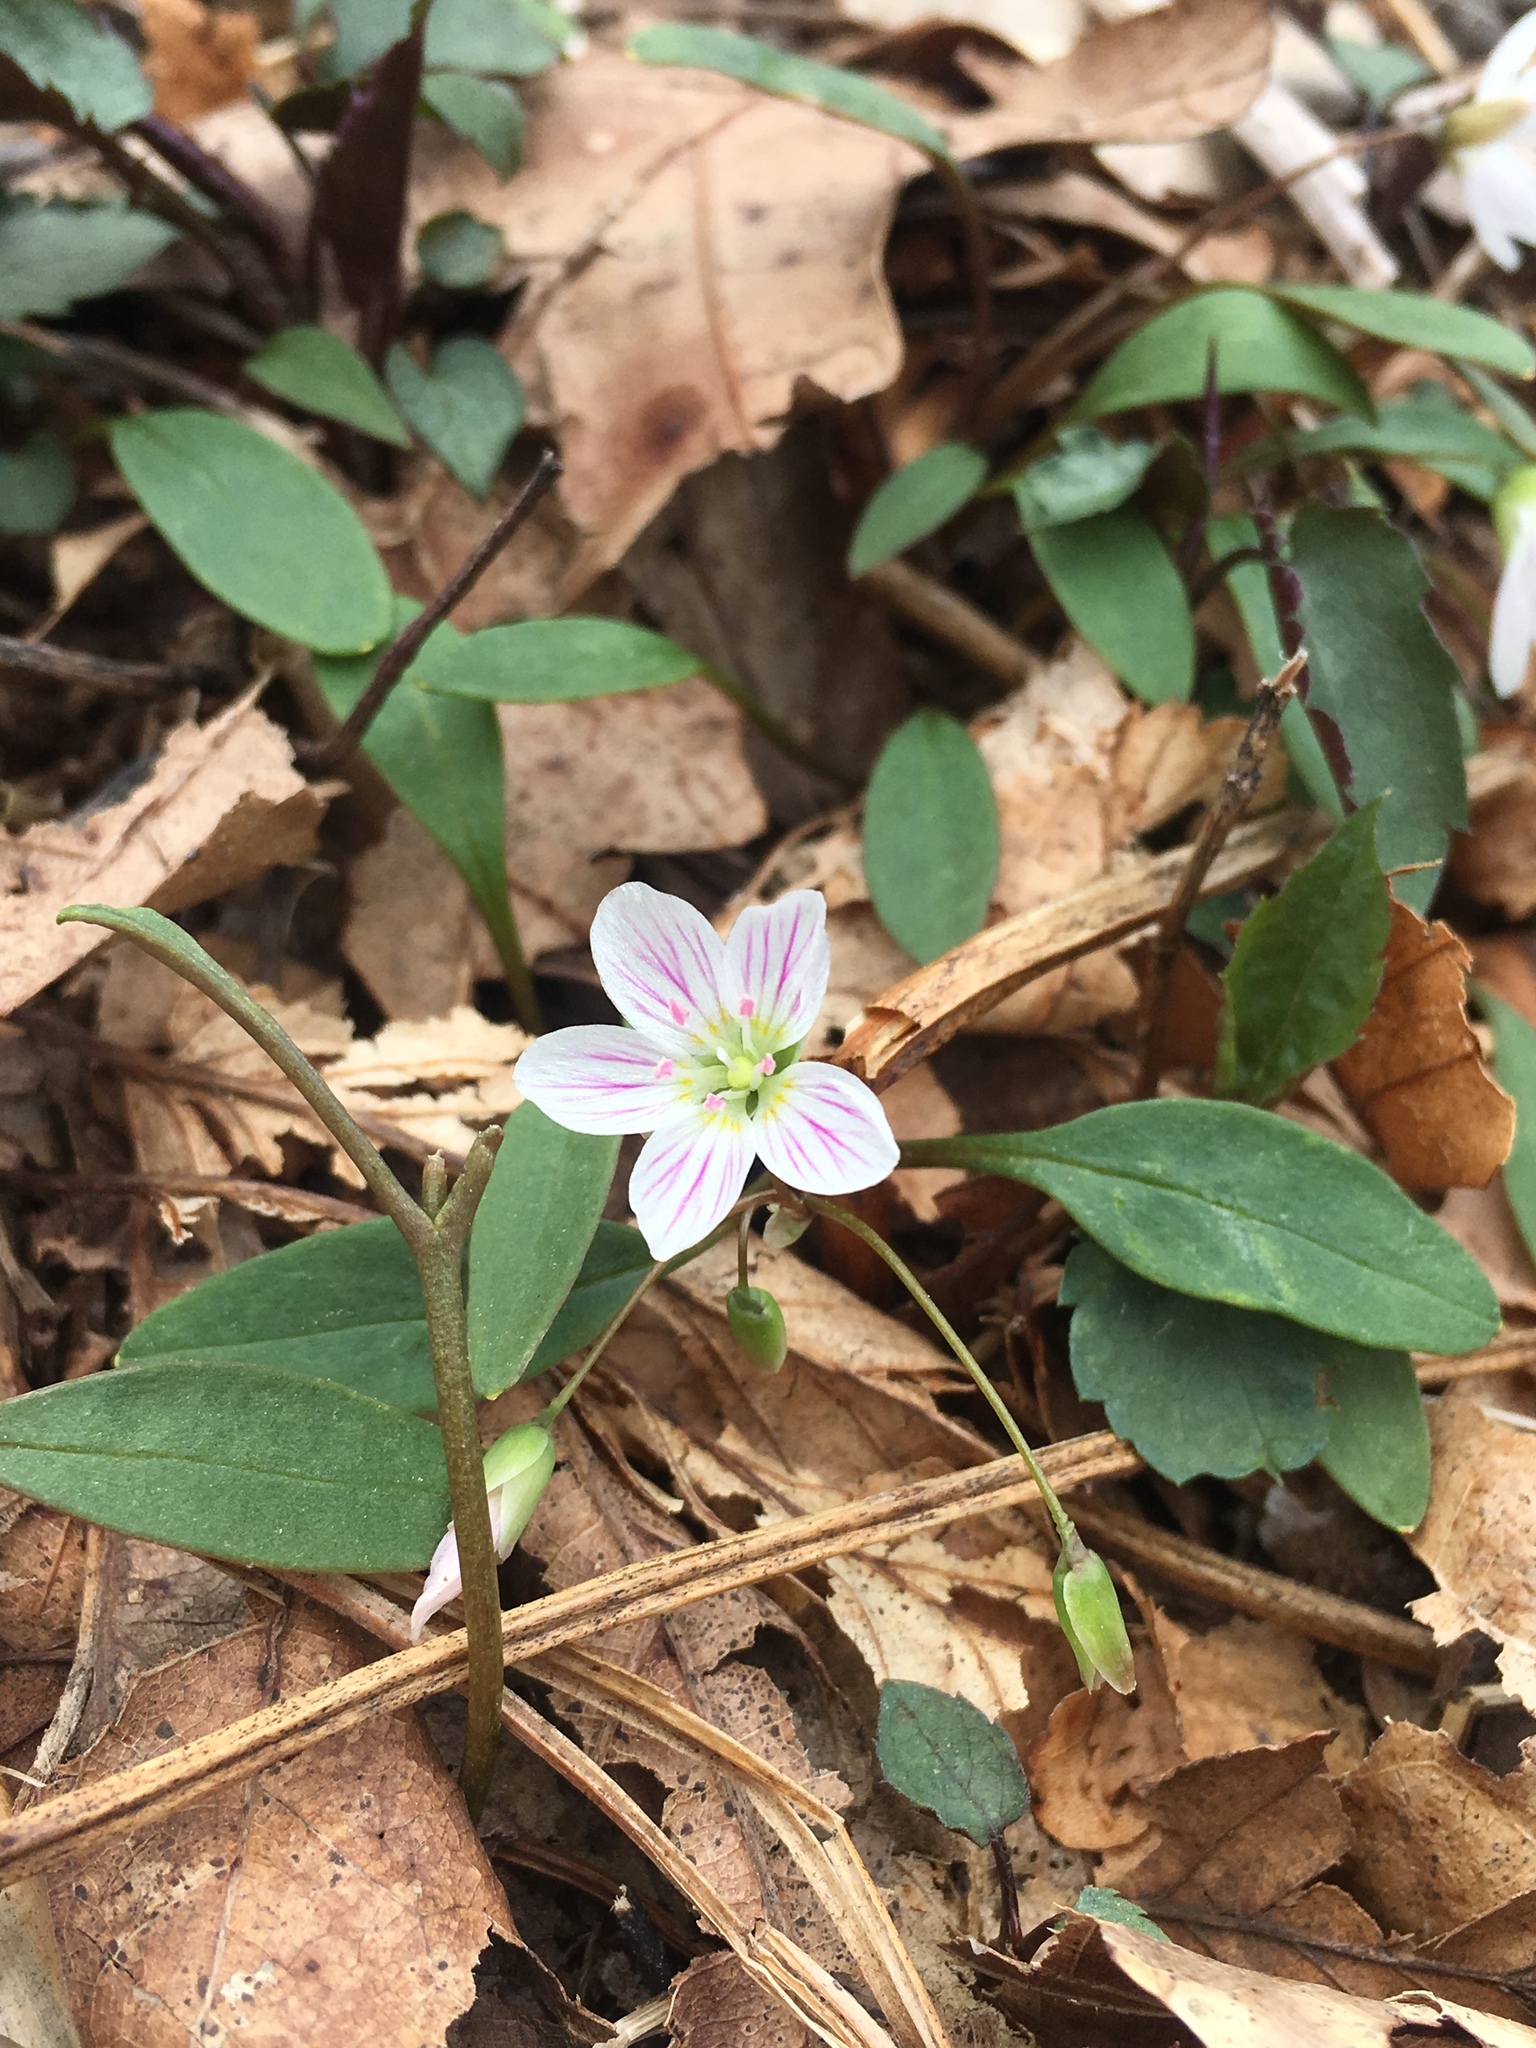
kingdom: Plantae
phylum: Tracheophyta
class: Magnoliopsida
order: Caryophyllales
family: Montiaceae
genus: Claytonia
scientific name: Claytonia caroliniana
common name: Carolina spring beauty
